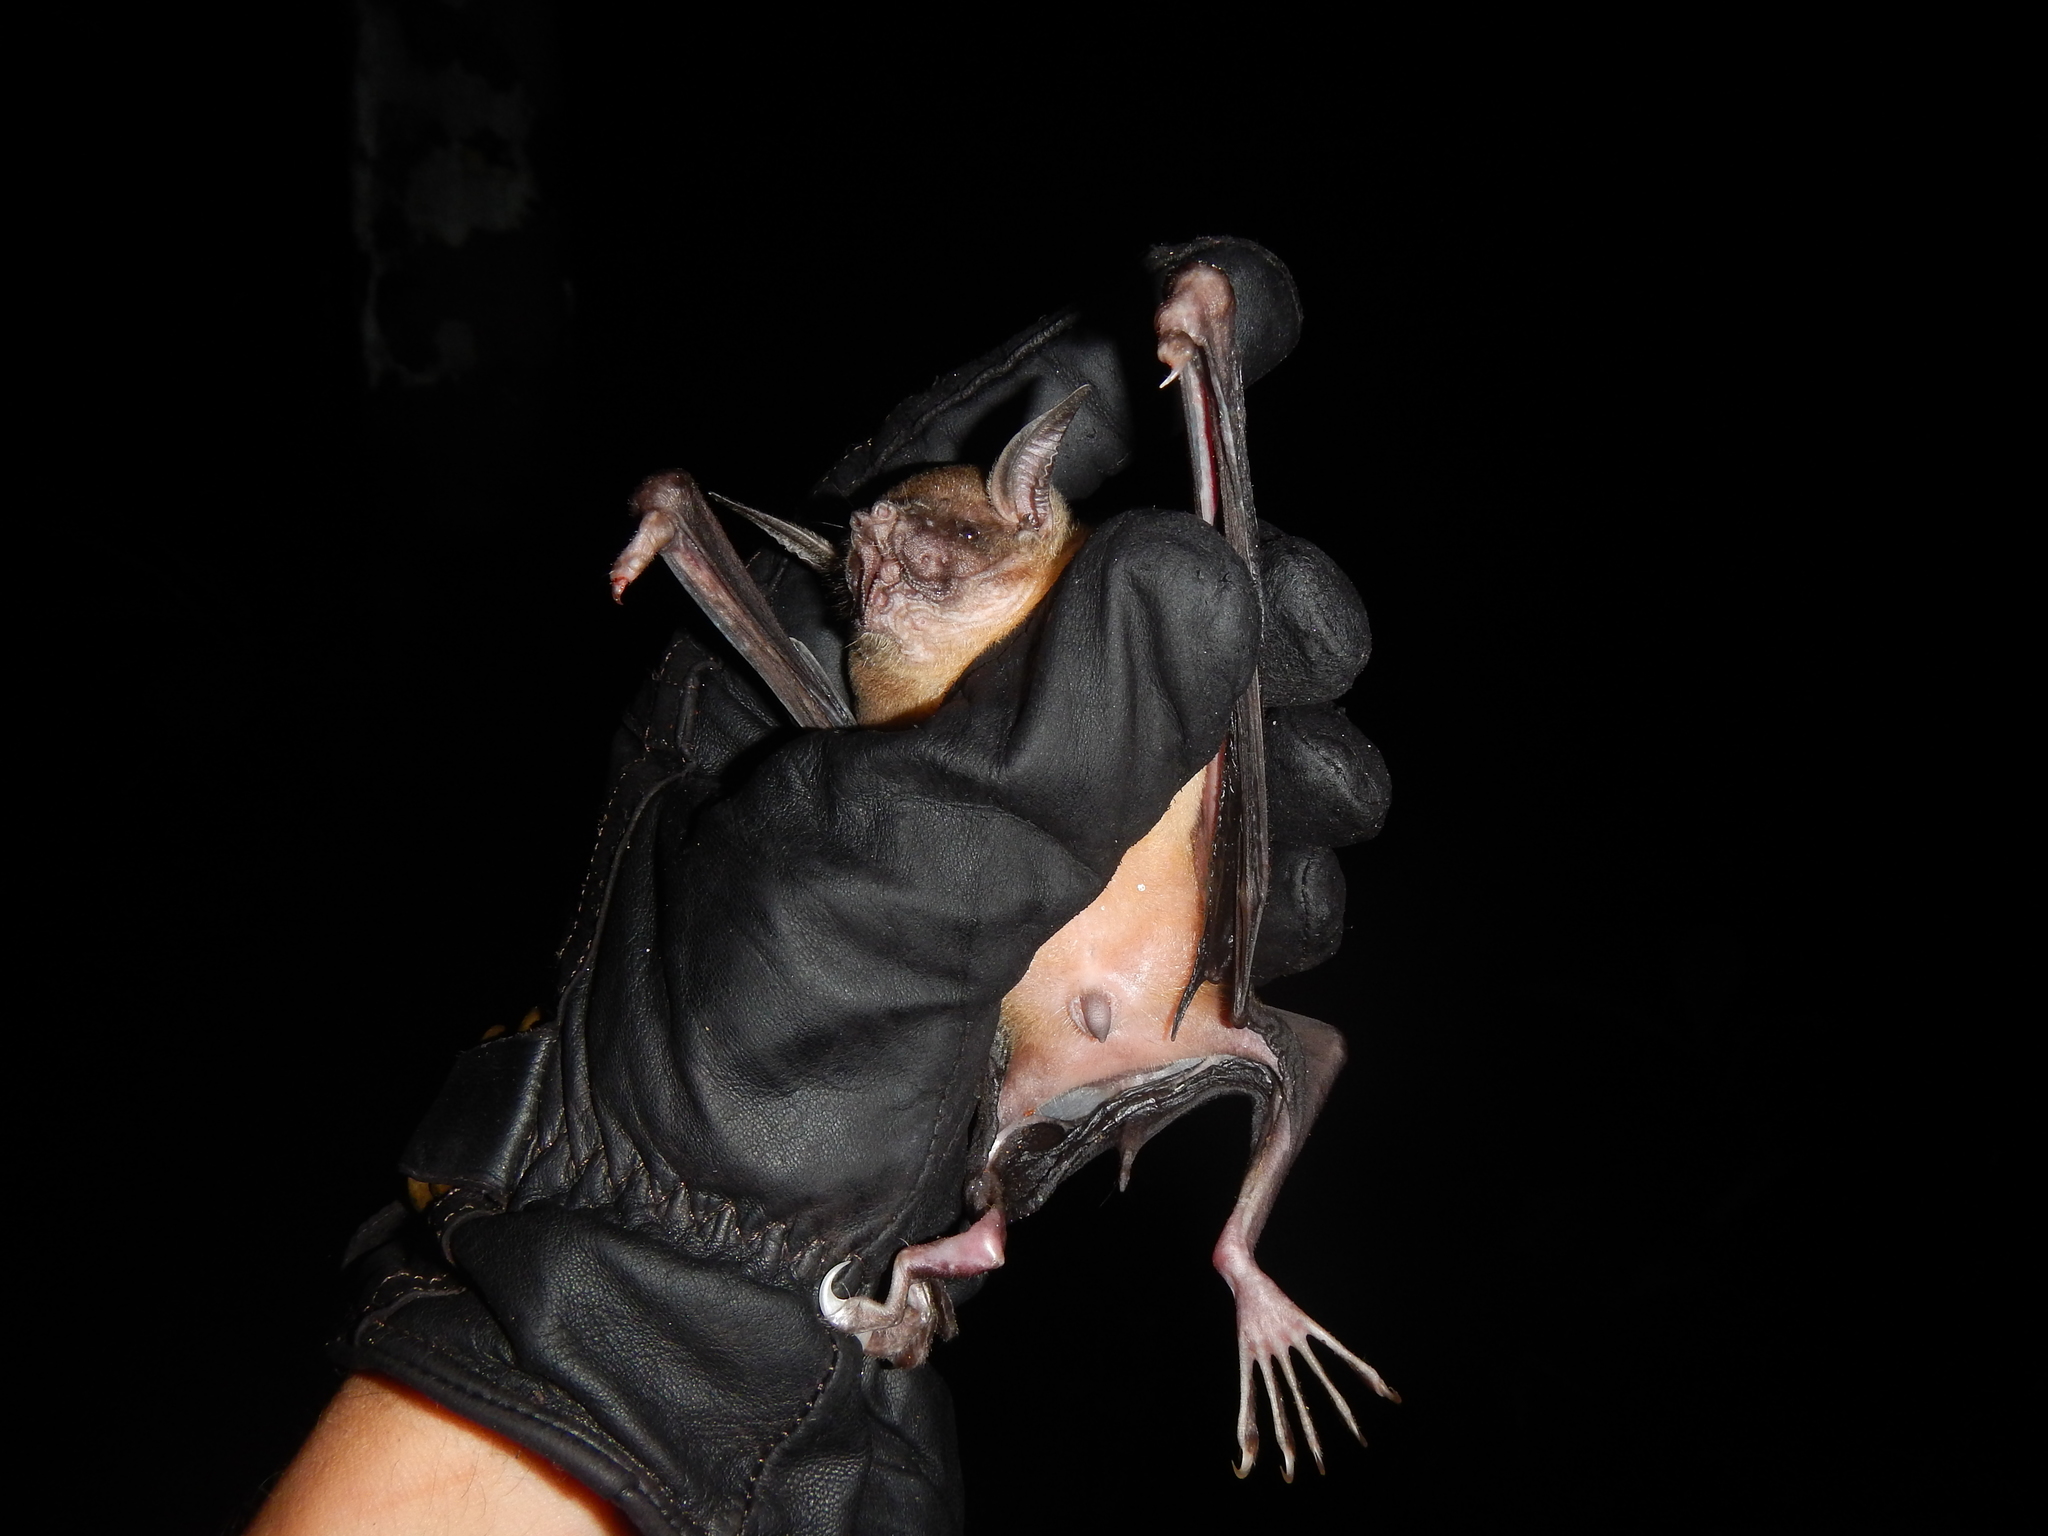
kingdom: Animalia
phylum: Chordata
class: Mammalia
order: Chiroptera
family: Noctilionidae
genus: Noctilio
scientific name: Noctilio leporinus
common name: Greater bulldog bat
